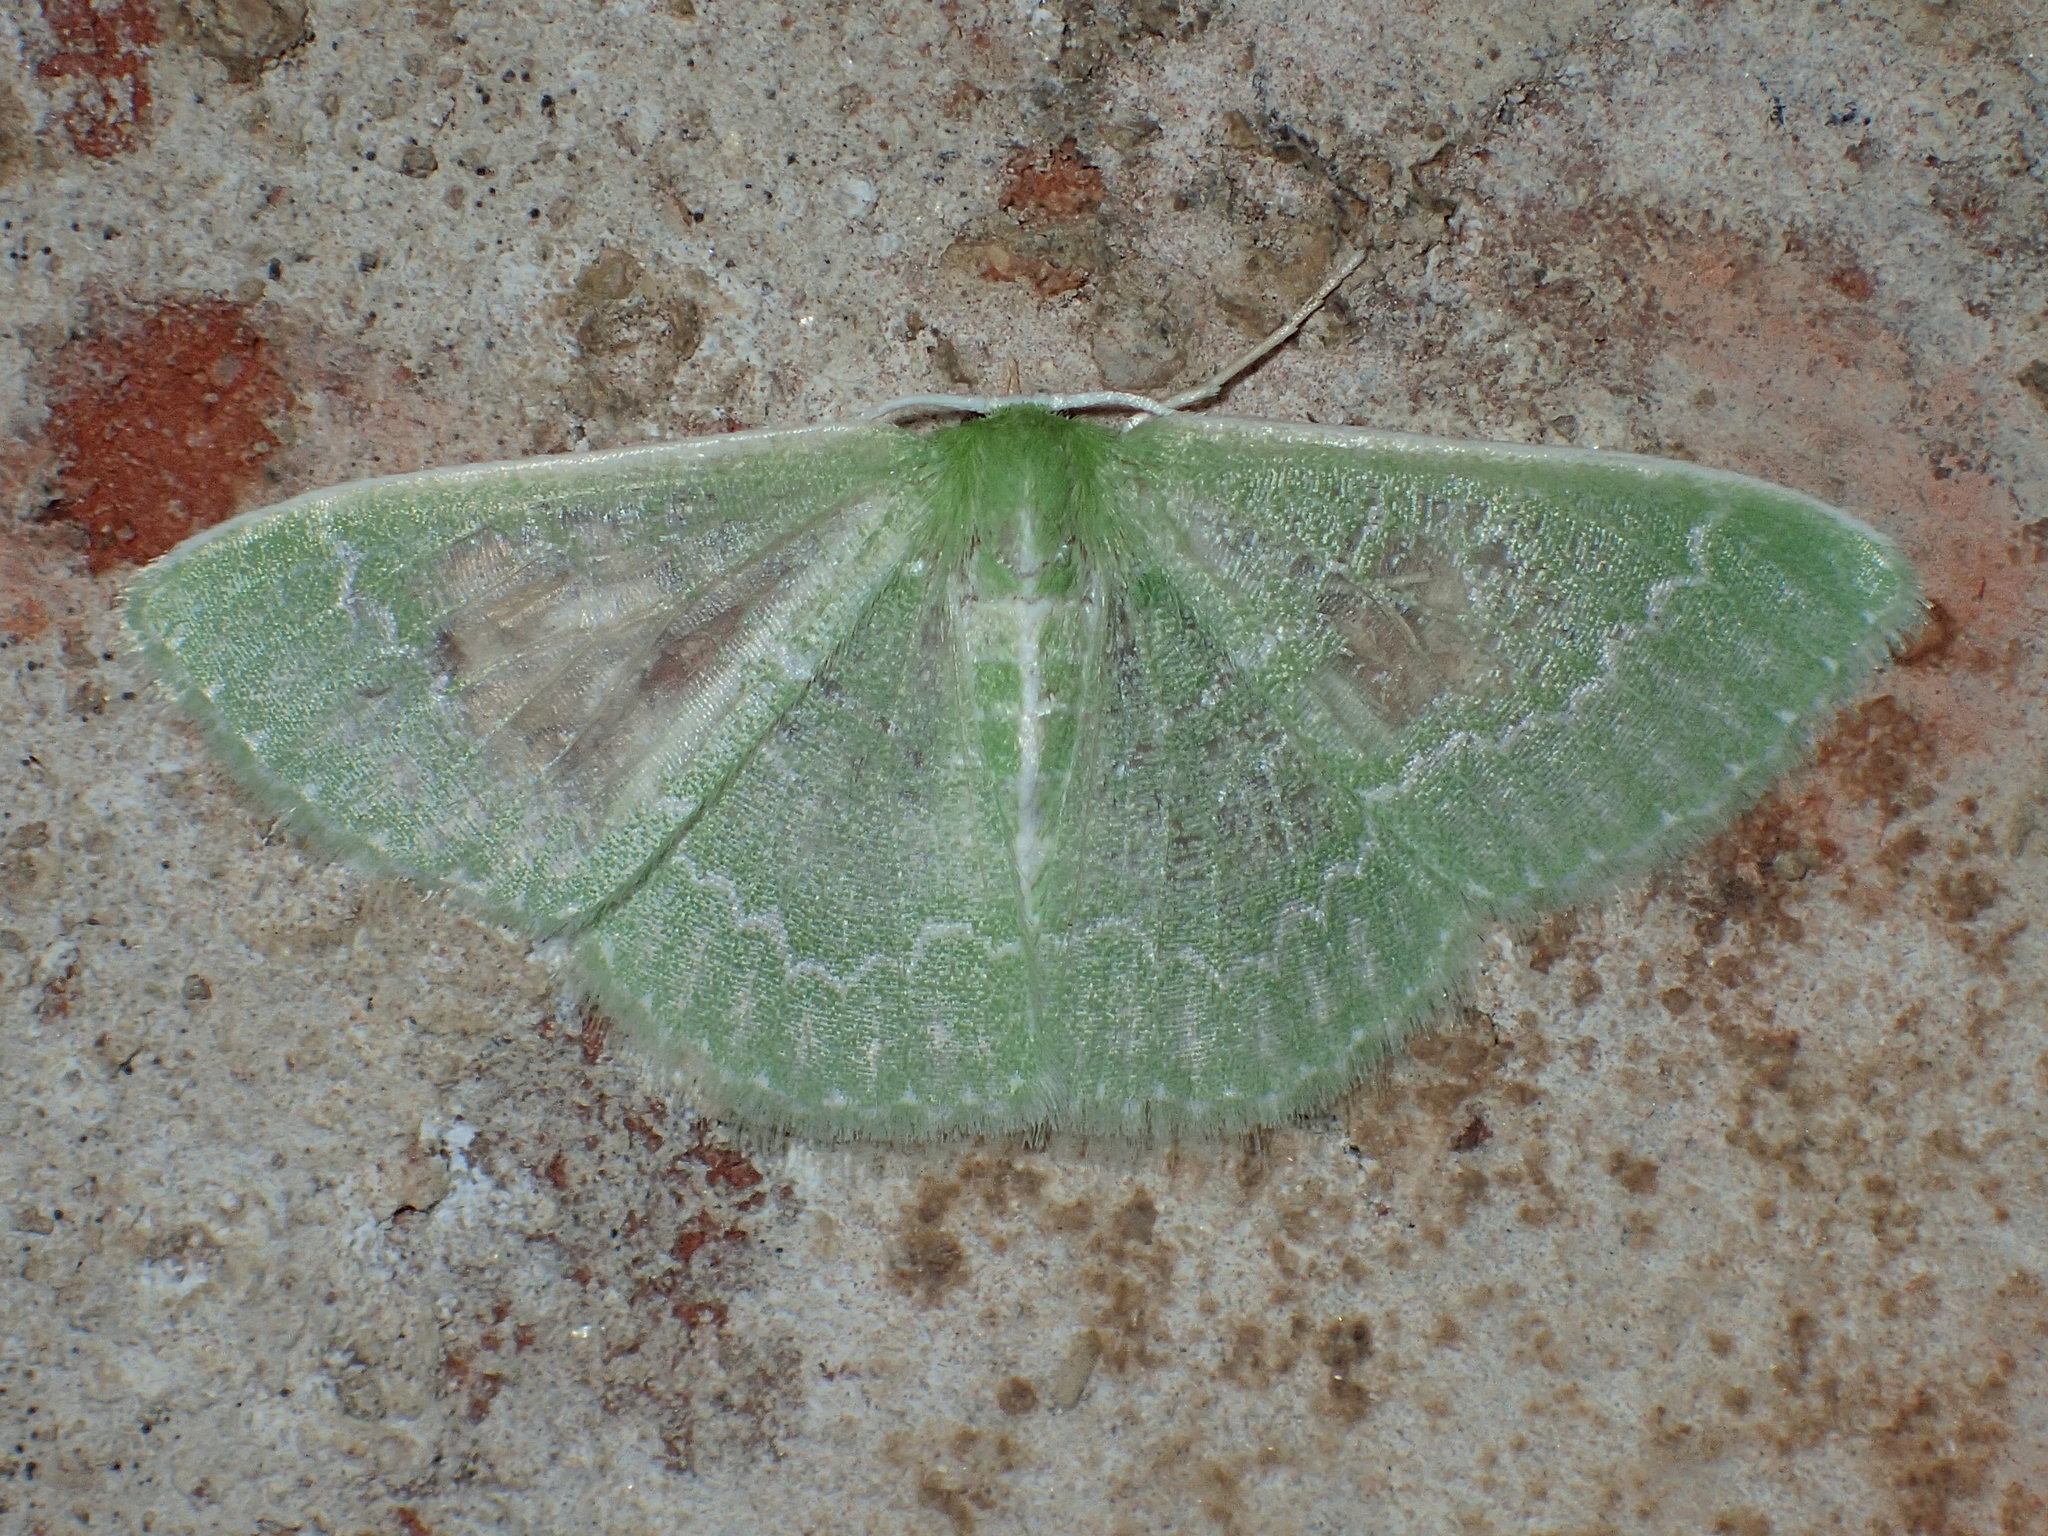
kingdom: Animalia
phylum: Arthropoda
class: Insecta
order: Lepidoptera
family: Geometridae
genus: Synchlora
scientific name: Synchlora aerata
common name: Wavy-lined emerald
